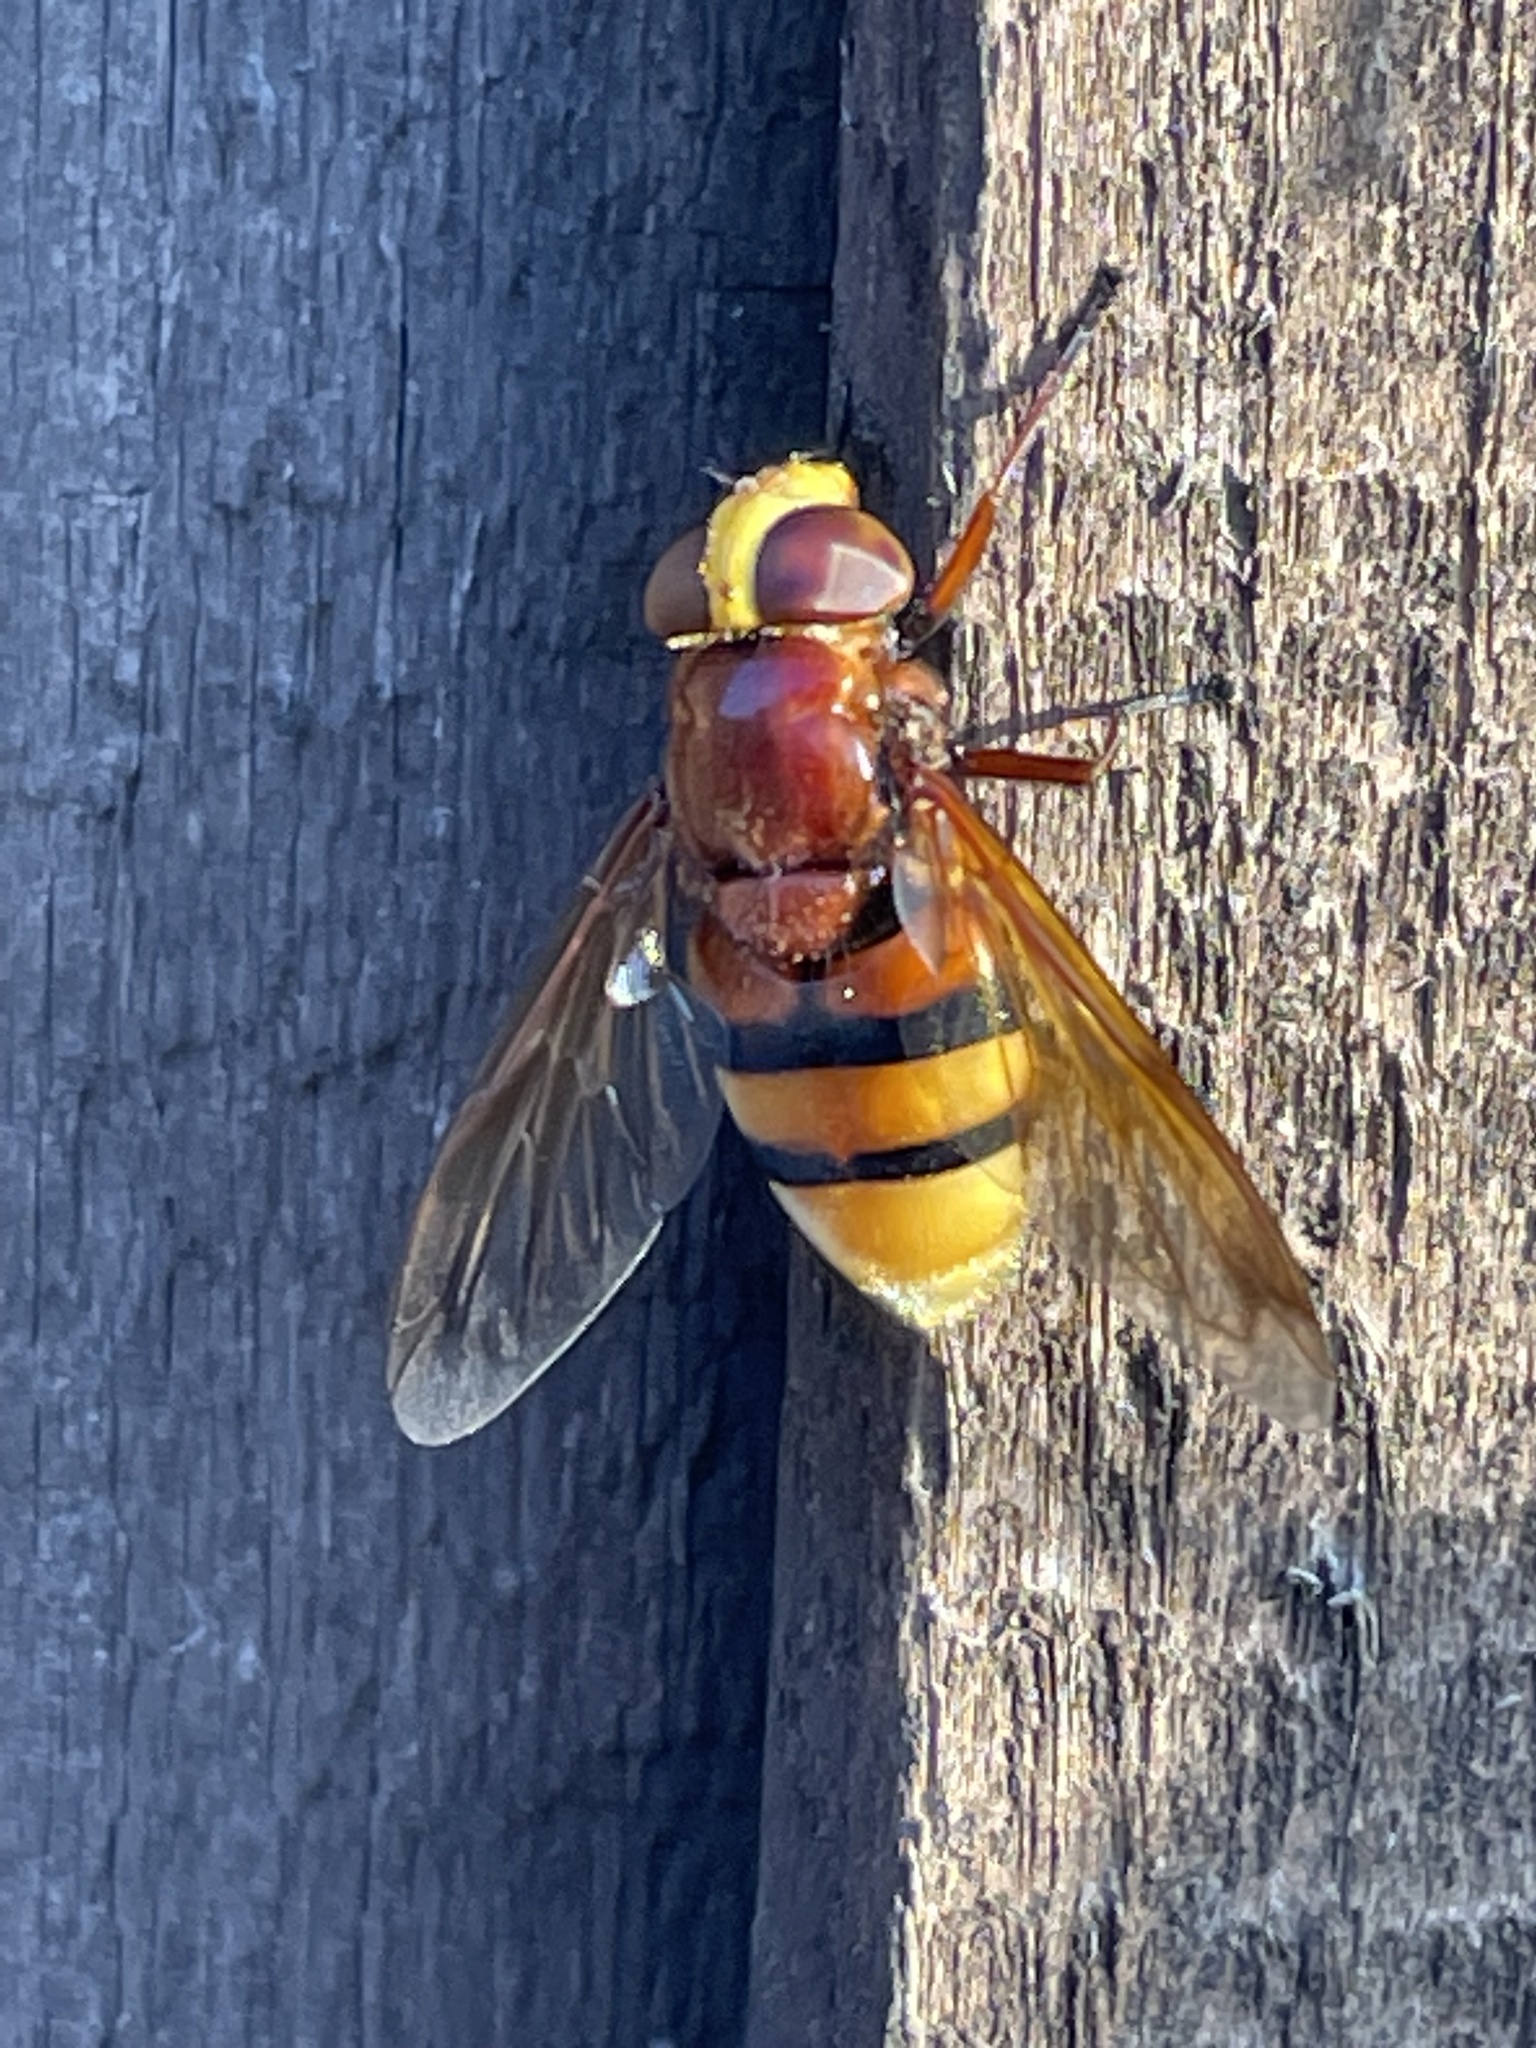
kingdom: Animalia
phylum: Arthropoda
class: Insecta
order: Diptera
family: Syrphidae
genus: Volucella
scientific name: Volucella zonaria
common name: Hornet hoverfly
